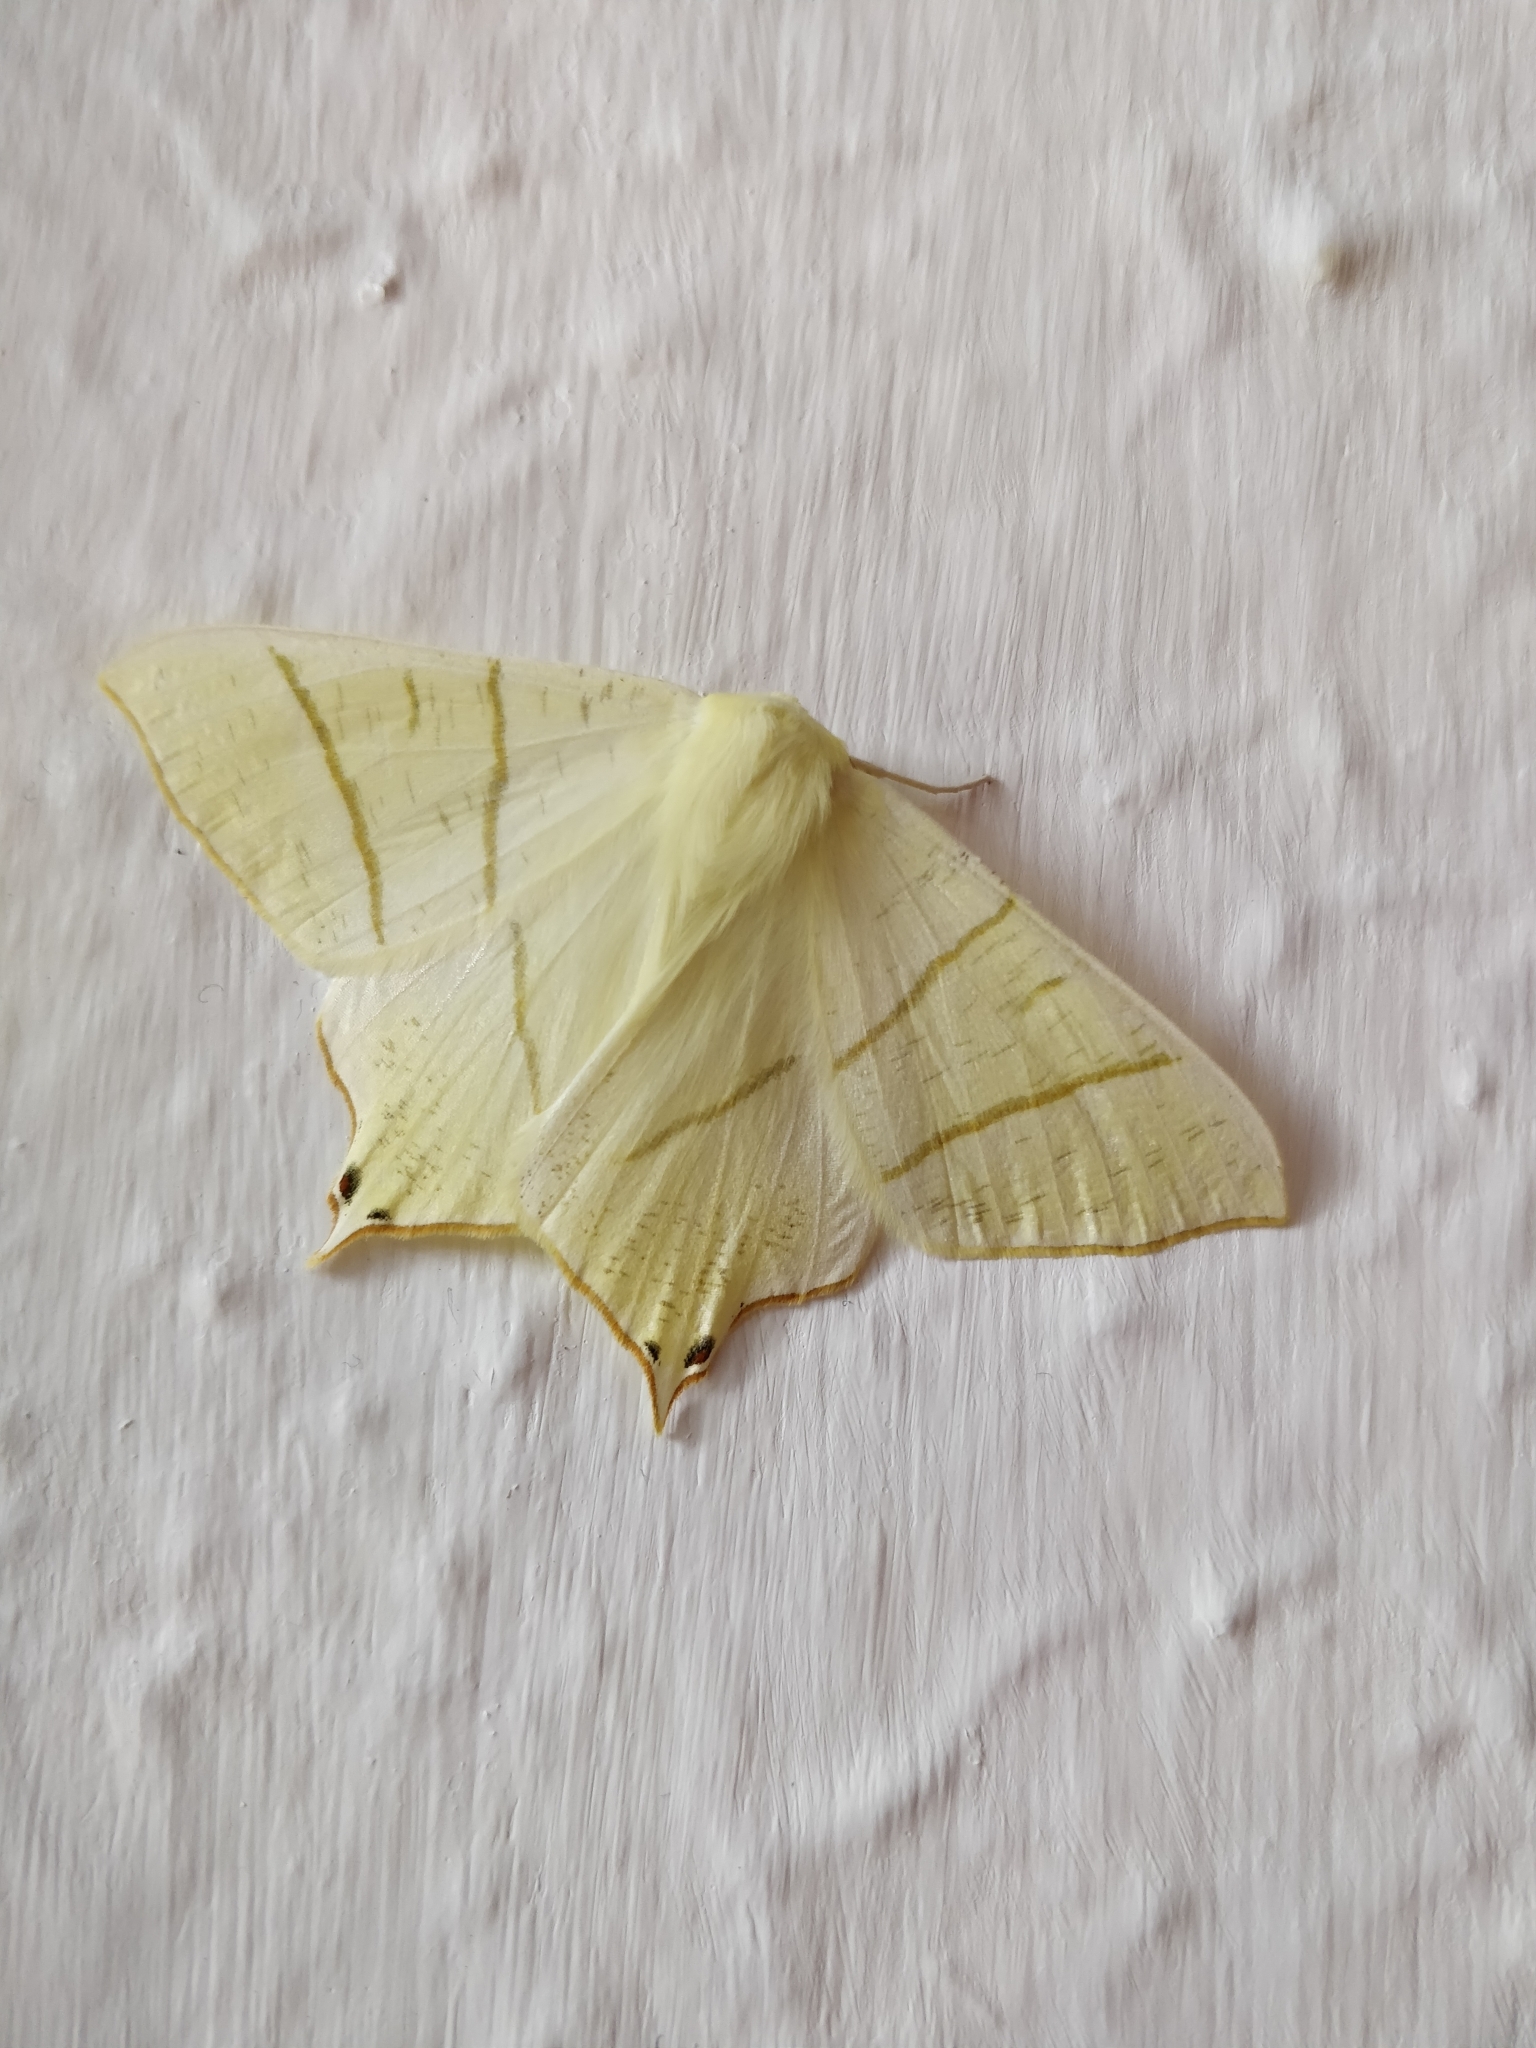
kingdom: Animalia
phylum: Arthropoda
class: Insecta
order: Lepidoptera
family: Geometridae
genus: Ourapteryx
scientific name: Ourapteryx sambucaria
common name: Swallow-tailed moth
